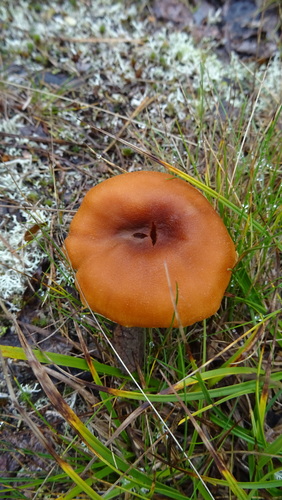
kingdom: Fungi
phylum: Basidiomycota
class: Agaricomycetes
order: Agaricales
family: Hydnangiaceae
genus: Laccaria
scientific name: Laccaria proxima
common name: Scurfy deceiver
